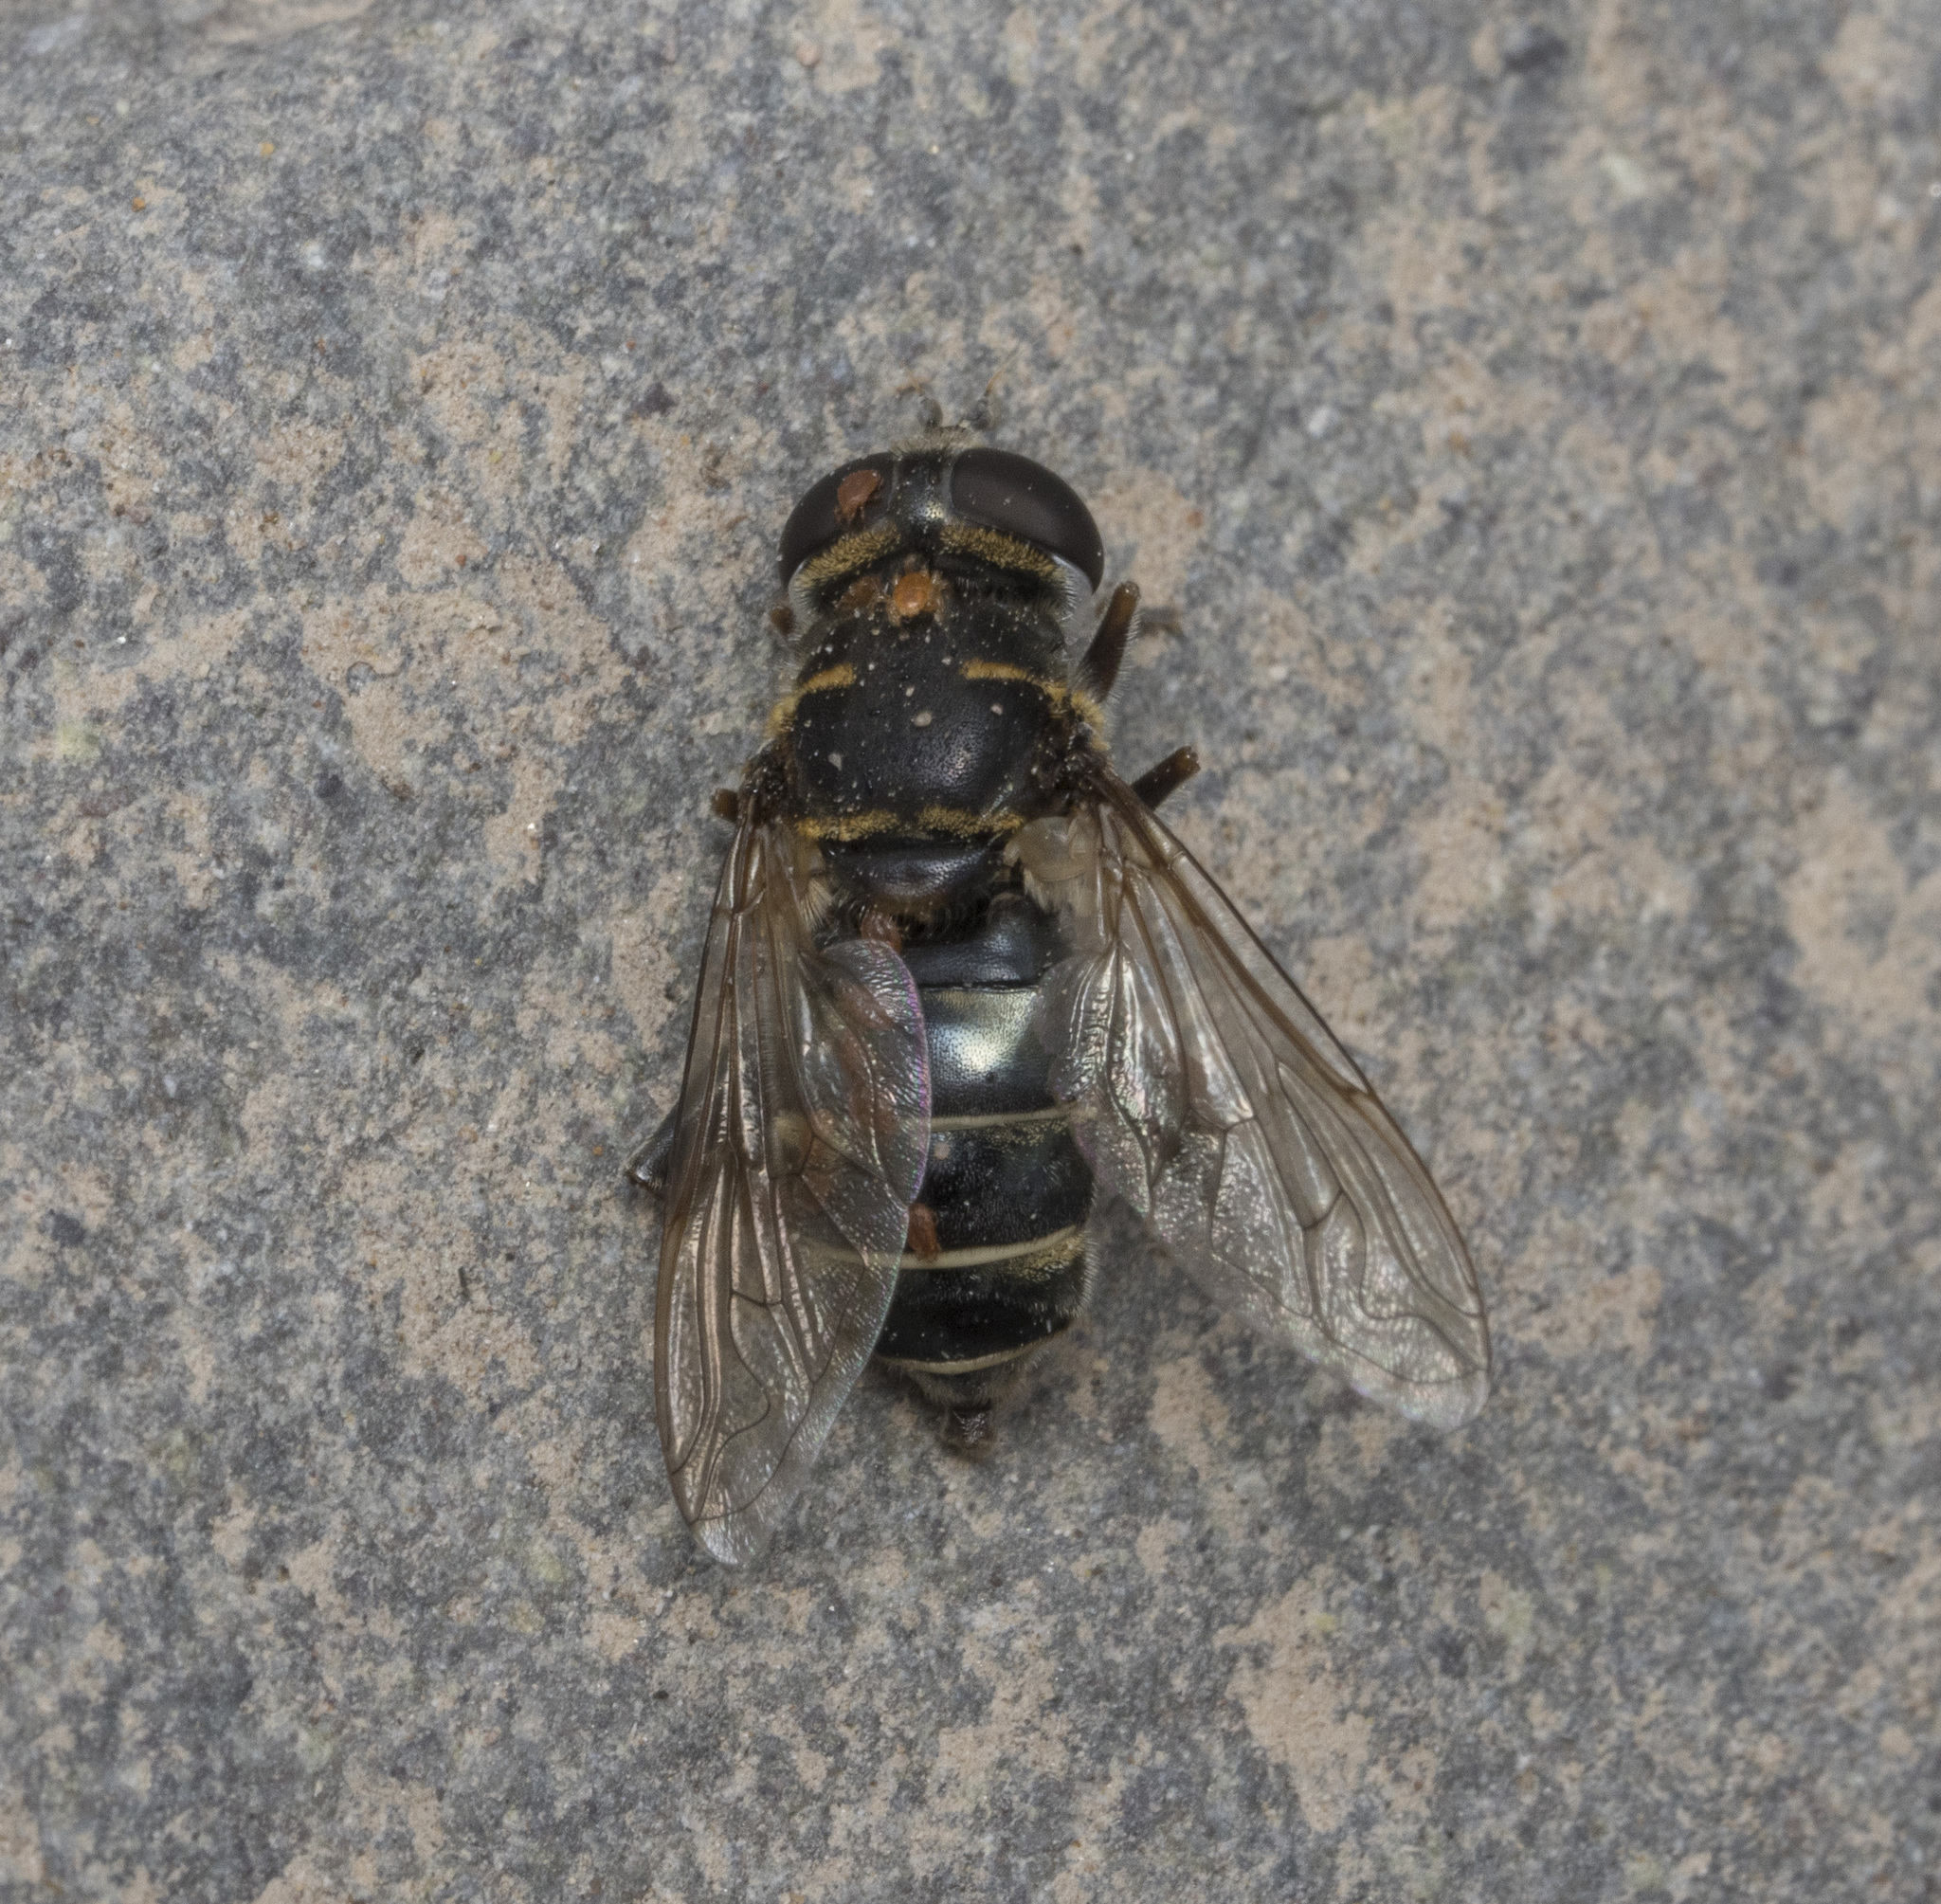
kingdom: Animalia
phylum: Arthropoda
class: Insecta
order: Diptera
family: Syrphidae
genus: Meromacrus
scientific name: Meromacrus cactorum
